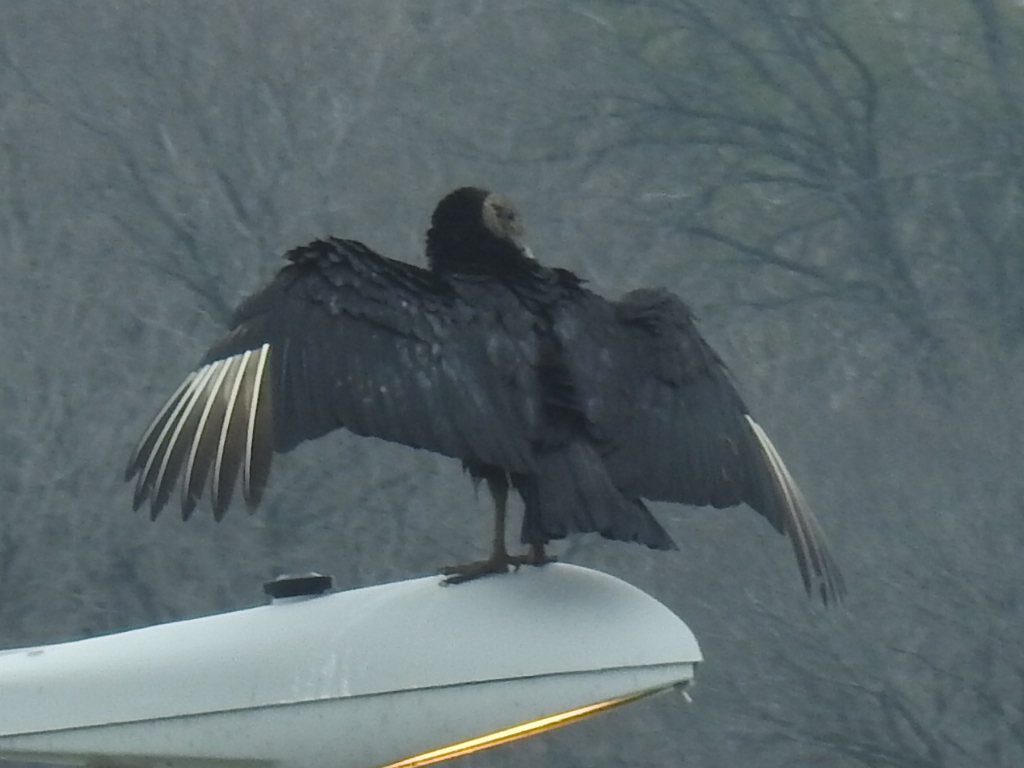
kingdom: Animalia
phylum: Chordata
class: Aves
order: Accipitriformes
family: Cathartidae
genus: Coragyps
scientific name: Coragyps atratus
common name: Black vulture
